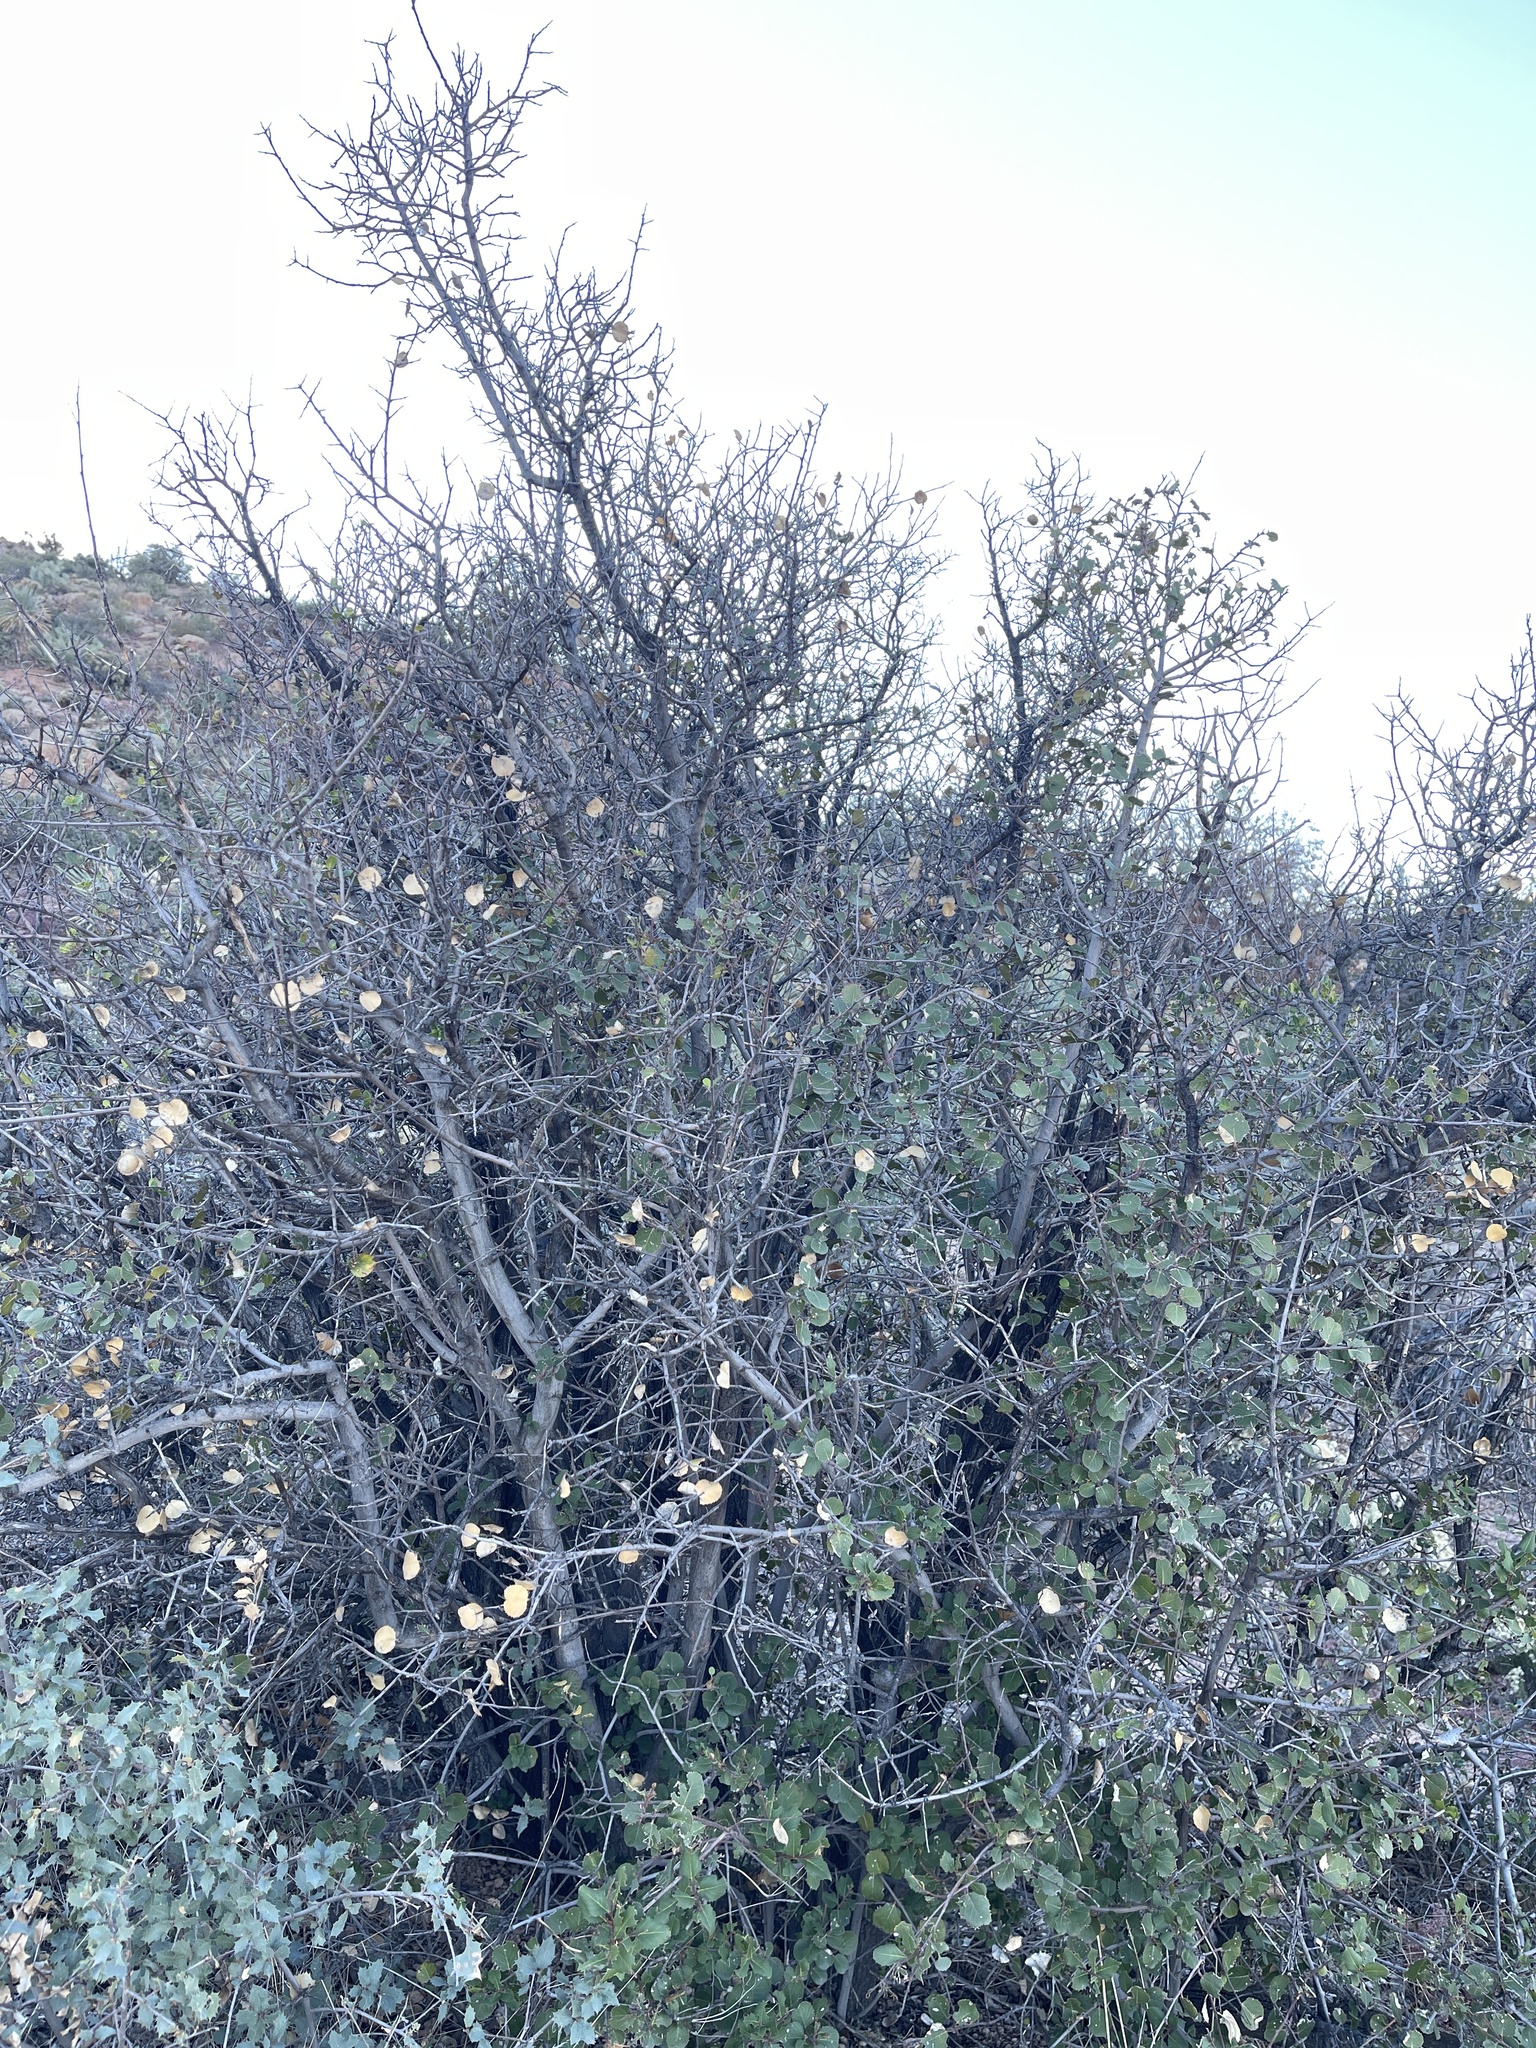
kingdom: Plantae
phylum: Tracheophyta
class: Magnoliopsida
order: Rosales
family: Rhamnaceae
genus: Endotropis
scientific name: Endotropis crocea
